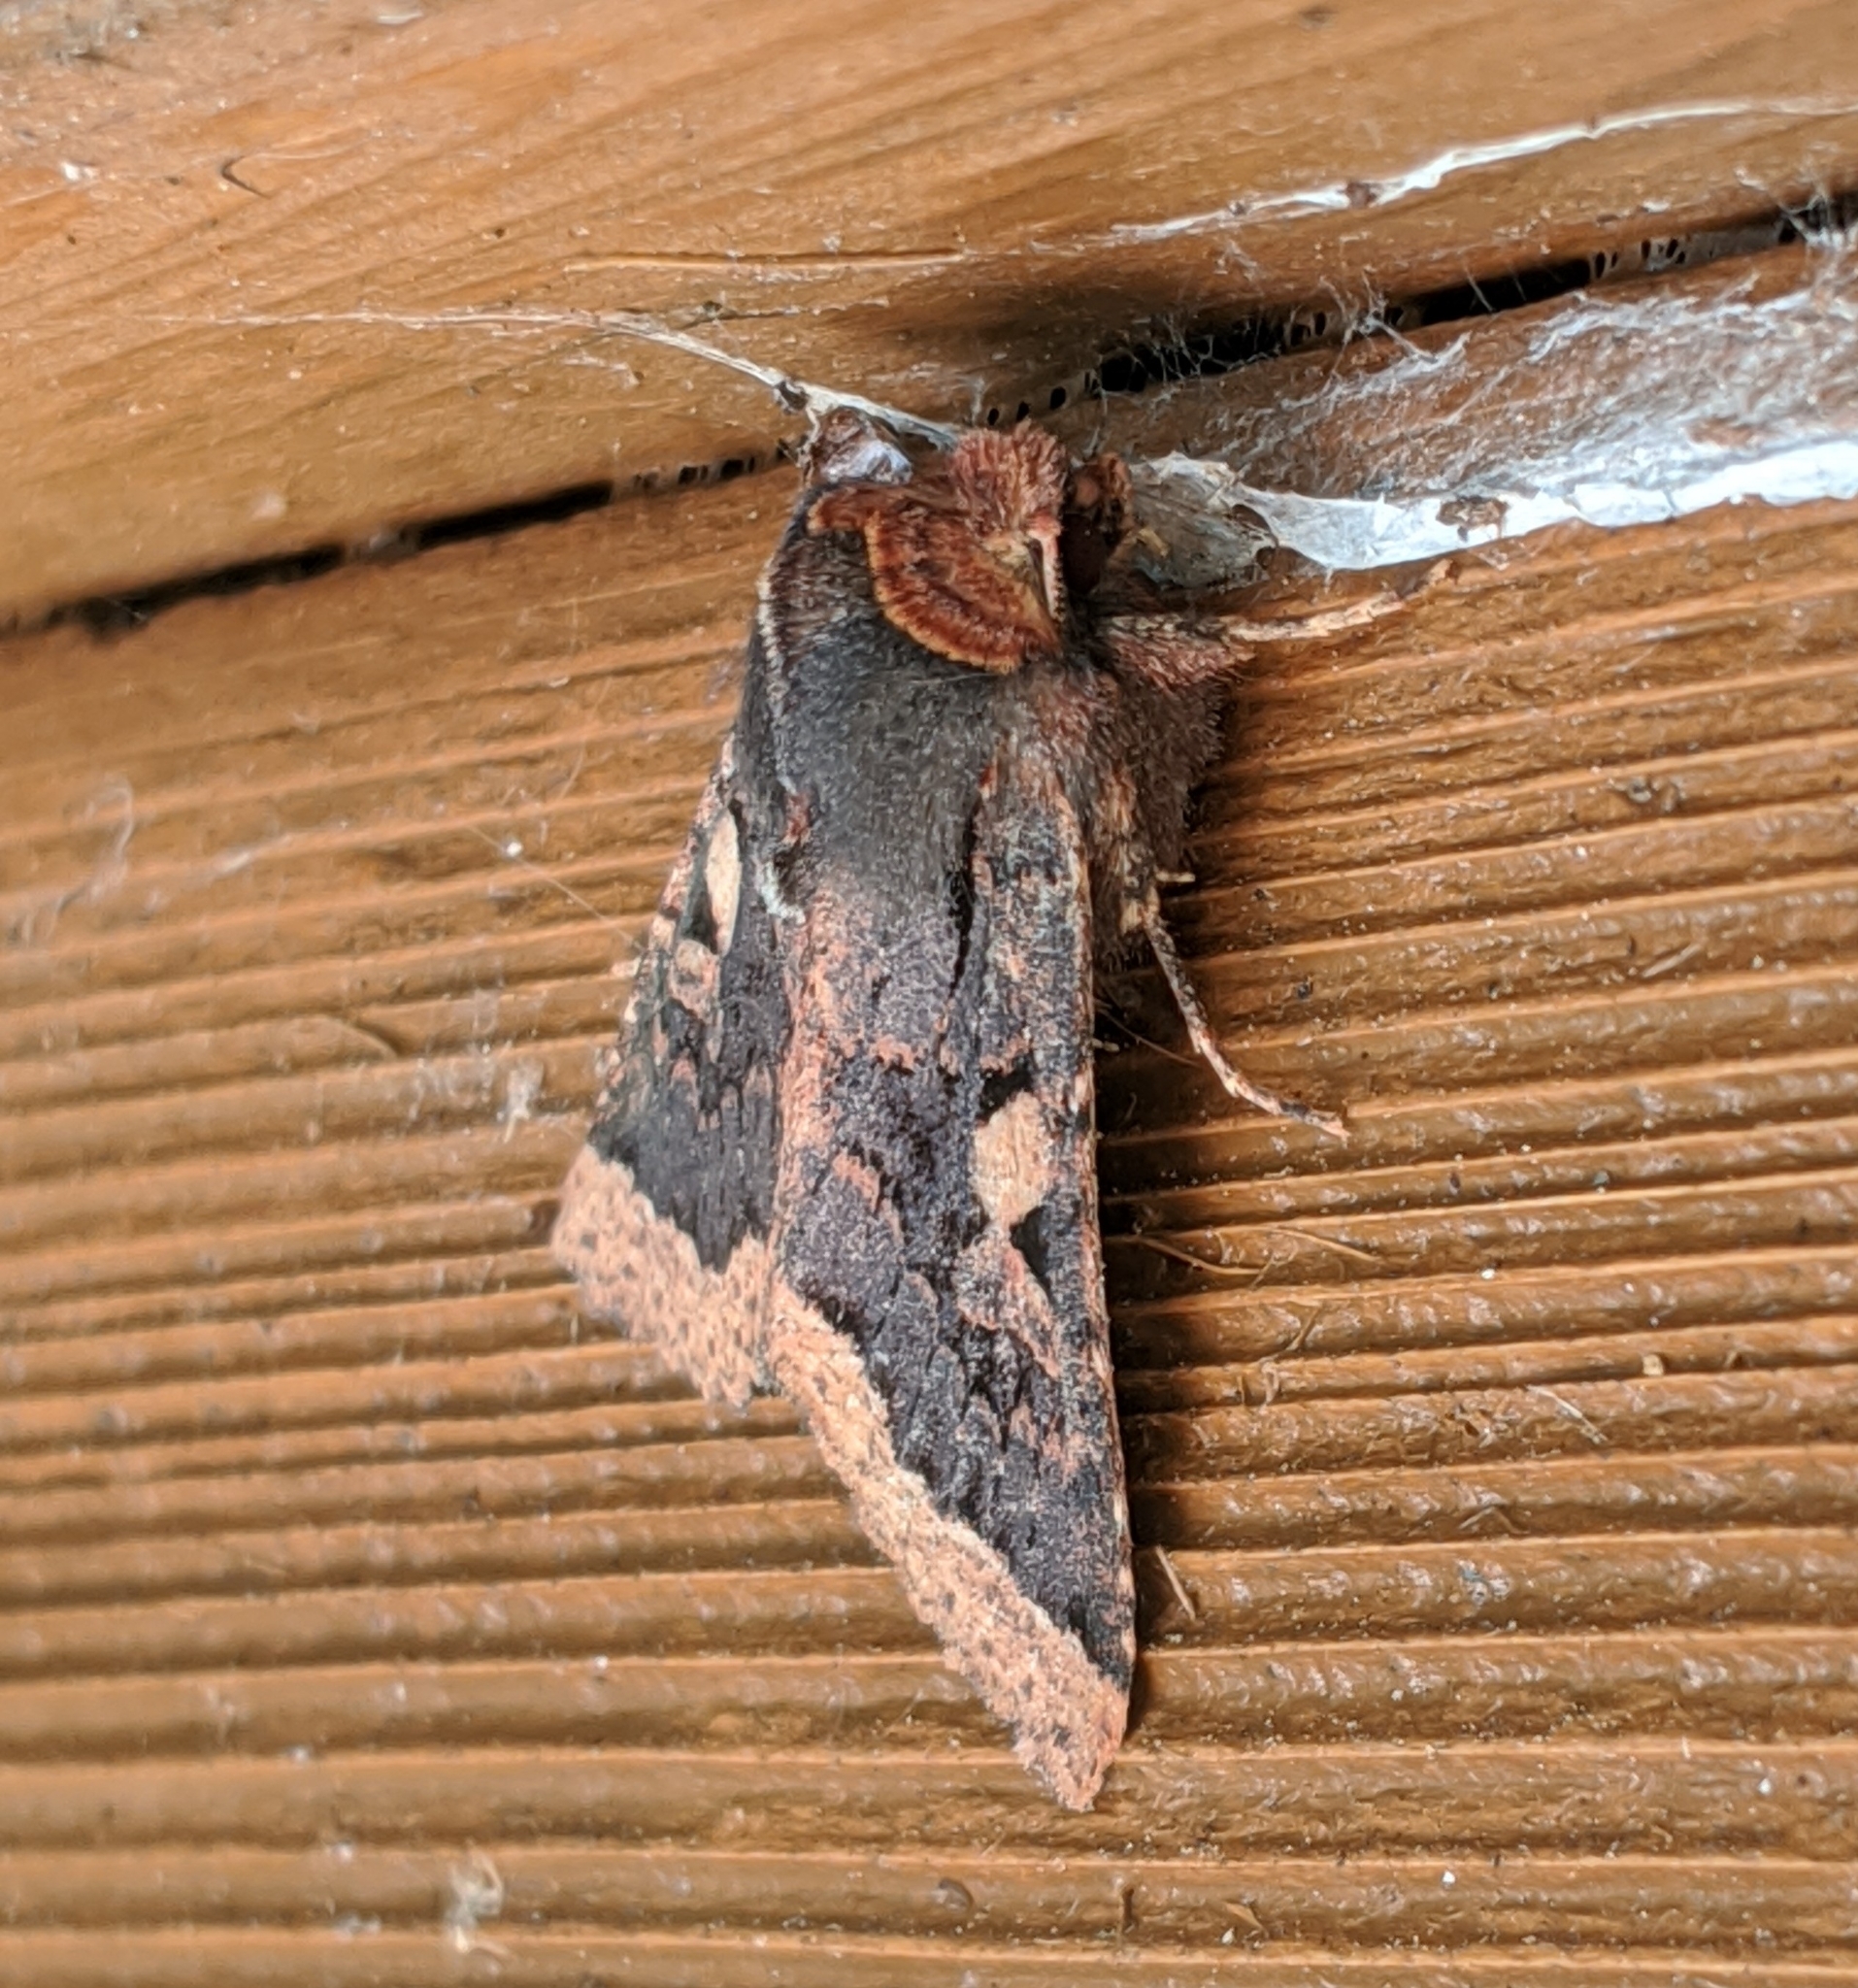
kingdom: Animalia
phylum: Arthropoda
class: Insecta
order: Lepidoptera
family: Noctuidae
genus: Orthosia
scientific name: Orthosia praeses
